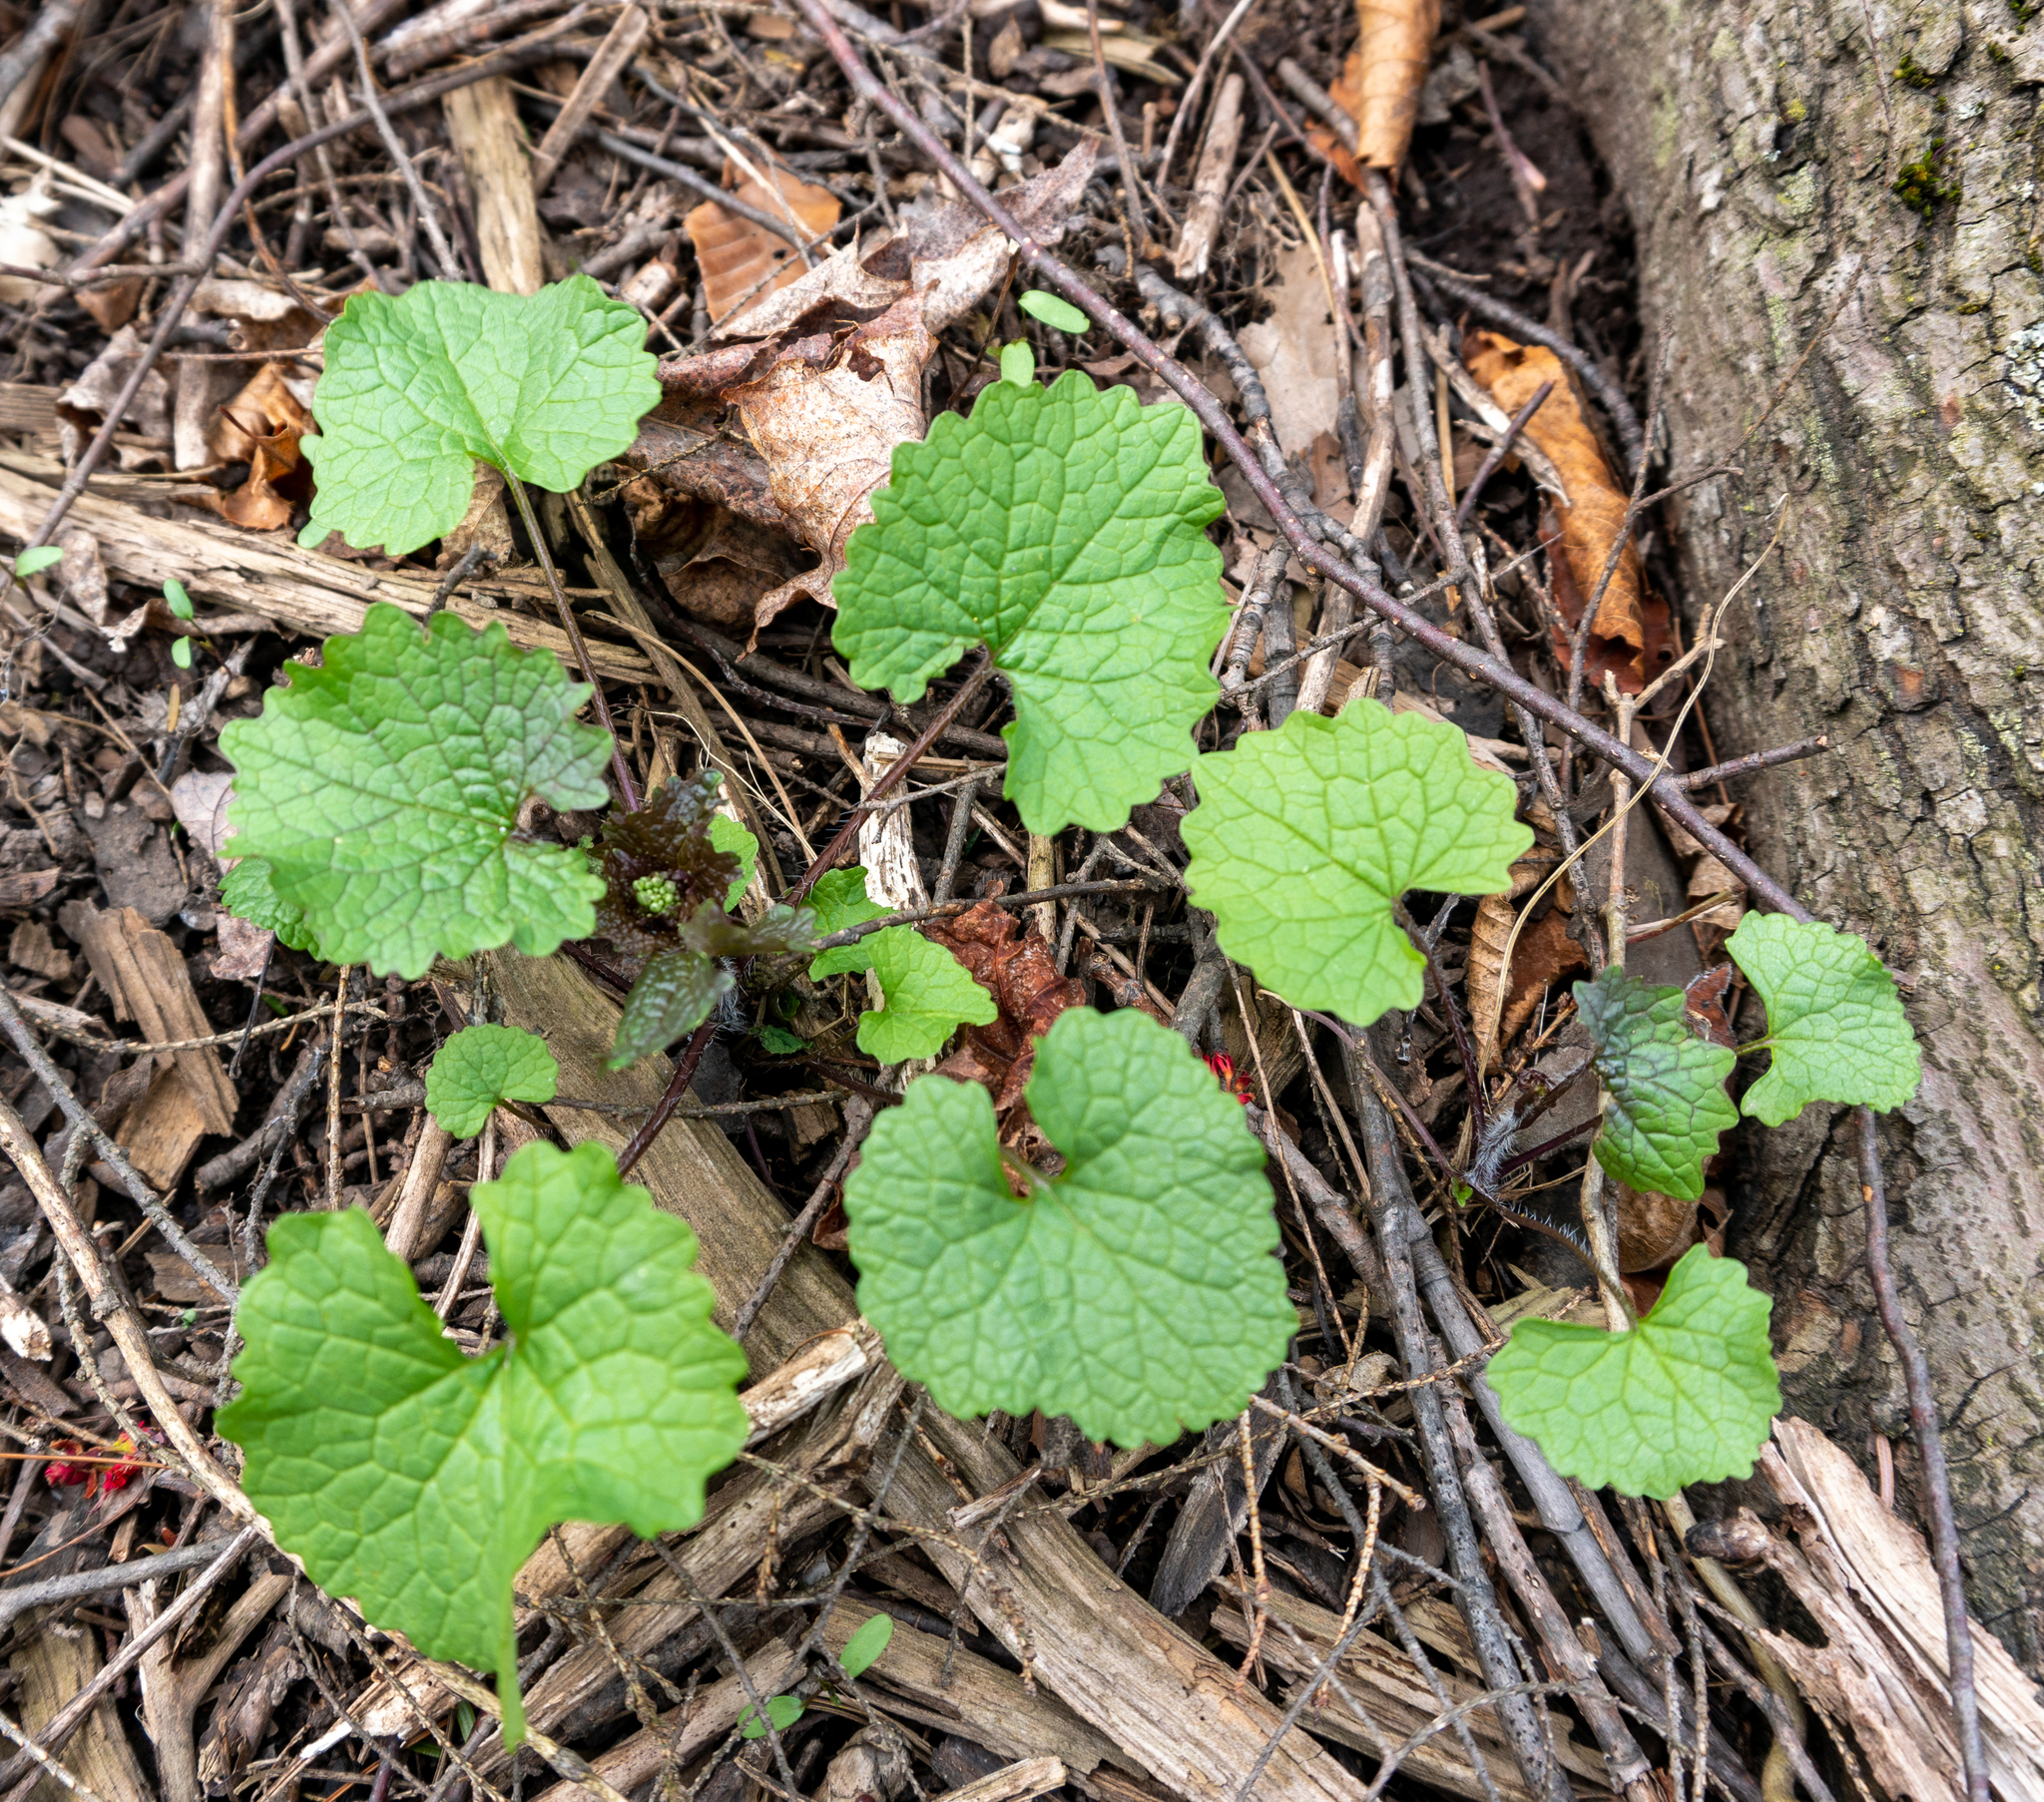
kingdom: Plantae
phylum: Tracheophyta
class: Magnoliopsida
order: Brassicales
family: Brassicaceae
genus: Alliaria
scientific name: Alliaria petiolata
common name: Garlic mustard
